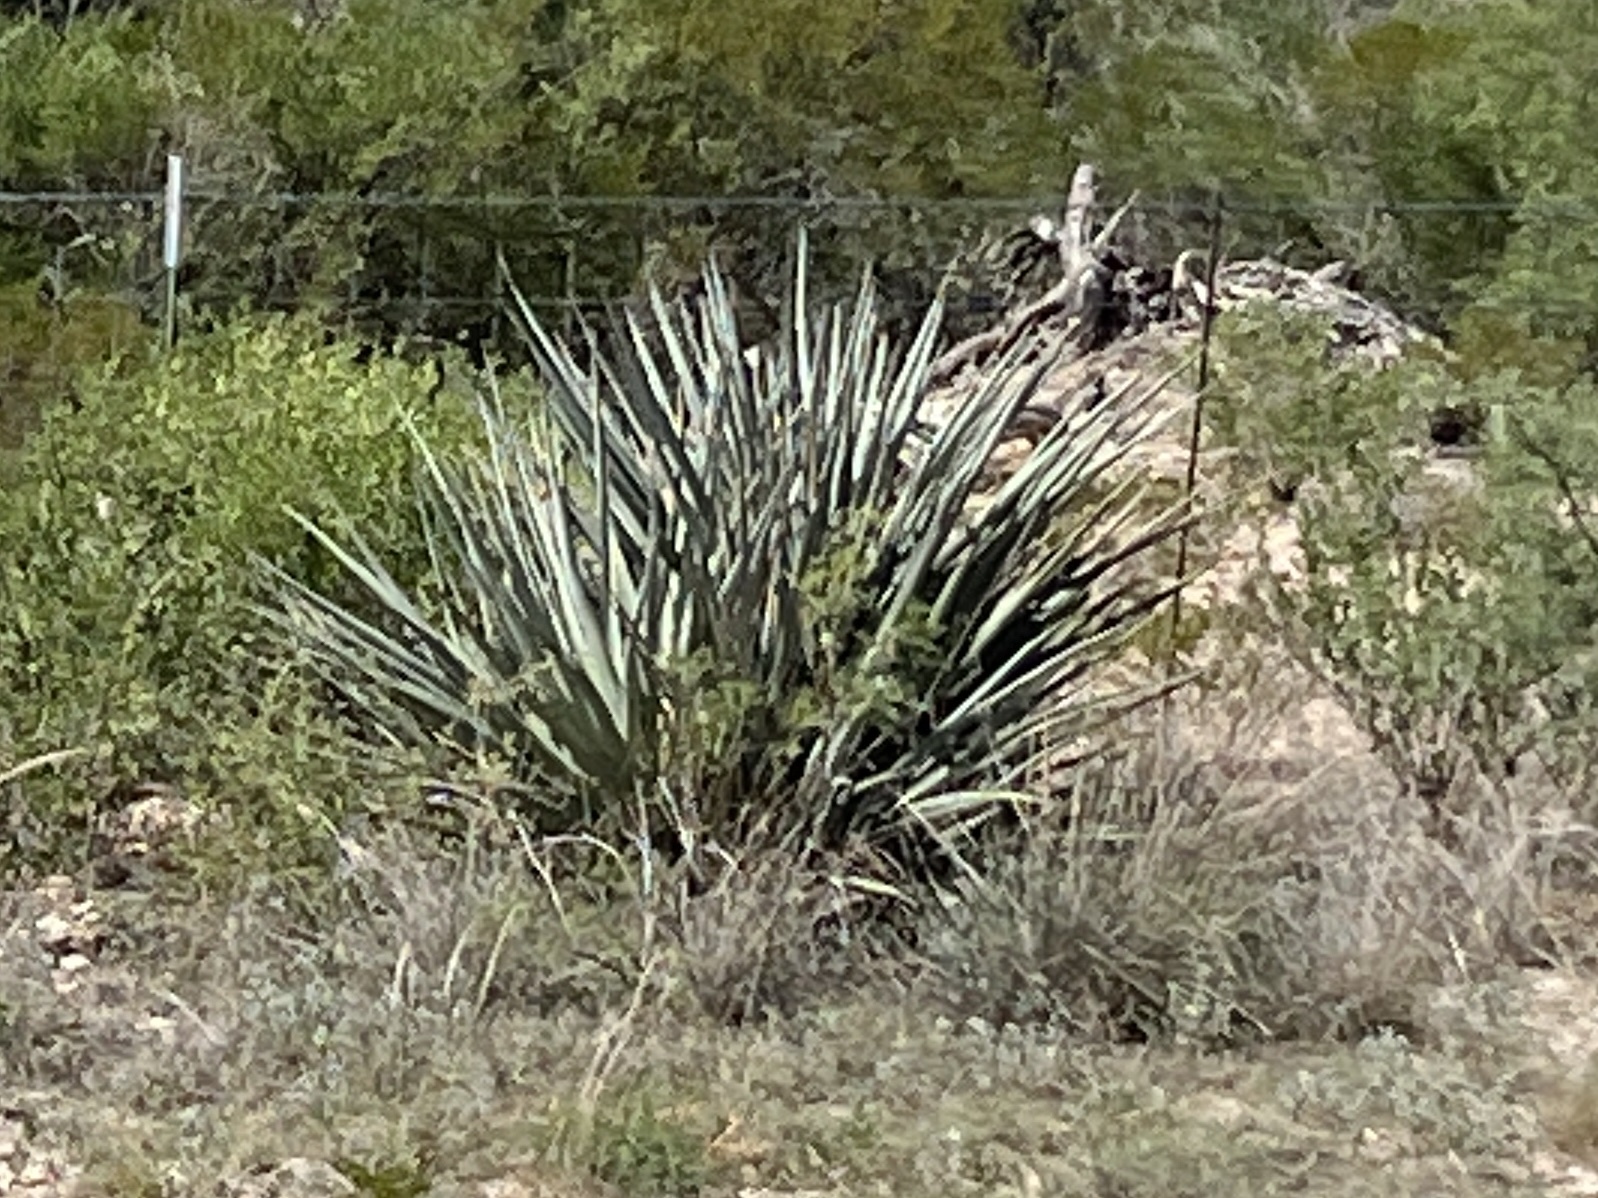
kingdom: Plantae
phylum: Tracheophyta
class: Liliopsida
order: Asparagales
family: Asparagaceae
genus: Yucca
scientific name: Yucca treculiana
